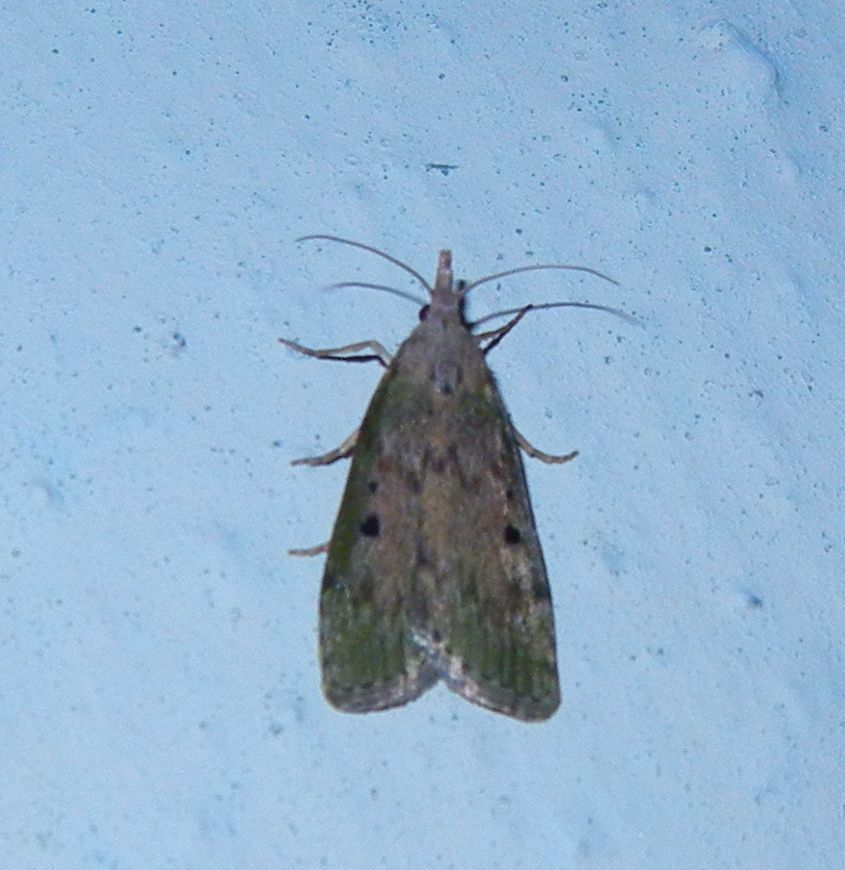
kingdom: Animalia
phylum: Arthropoda
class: Insecta
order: Lepidoptera
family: Pyralidae
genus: Aphomia
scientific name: Aphomia sociella
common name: Bee moth
